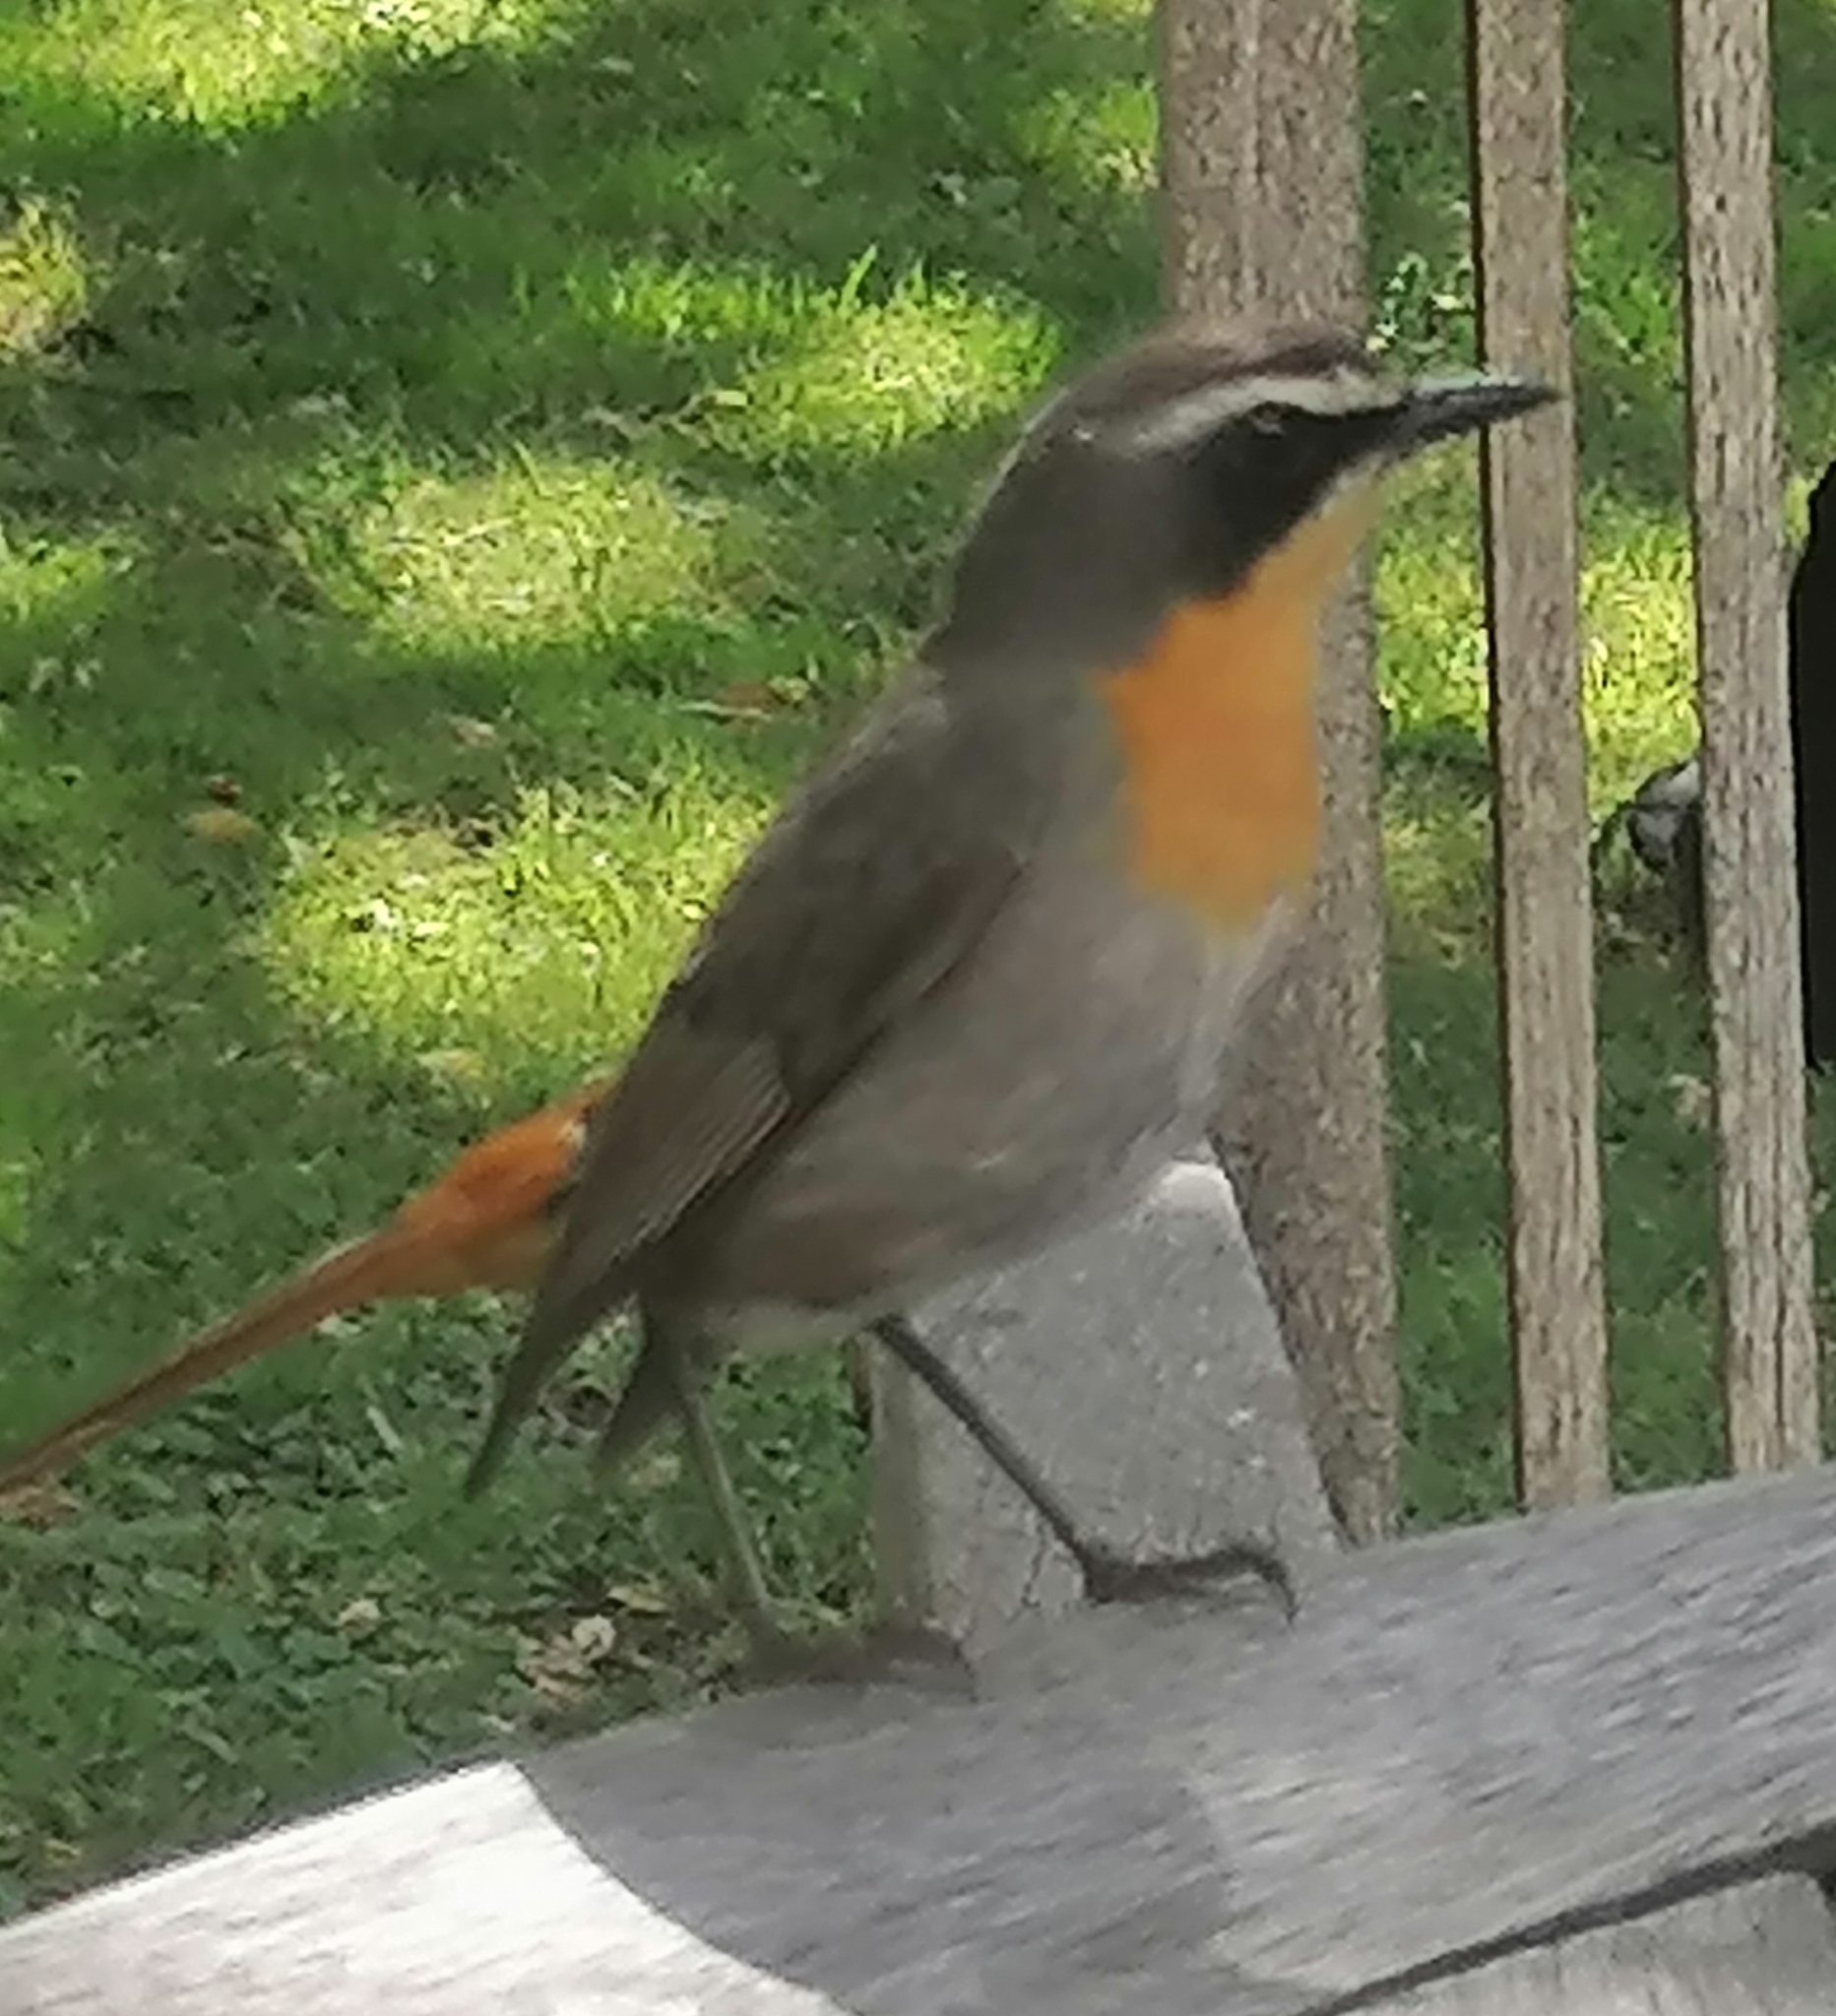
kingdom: Animalia
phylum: Chordata
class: Aves
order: Passeriformes
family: Muscicapidae
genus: Cossypha
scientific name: Cossypha caffra
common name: Cape robin-chat
